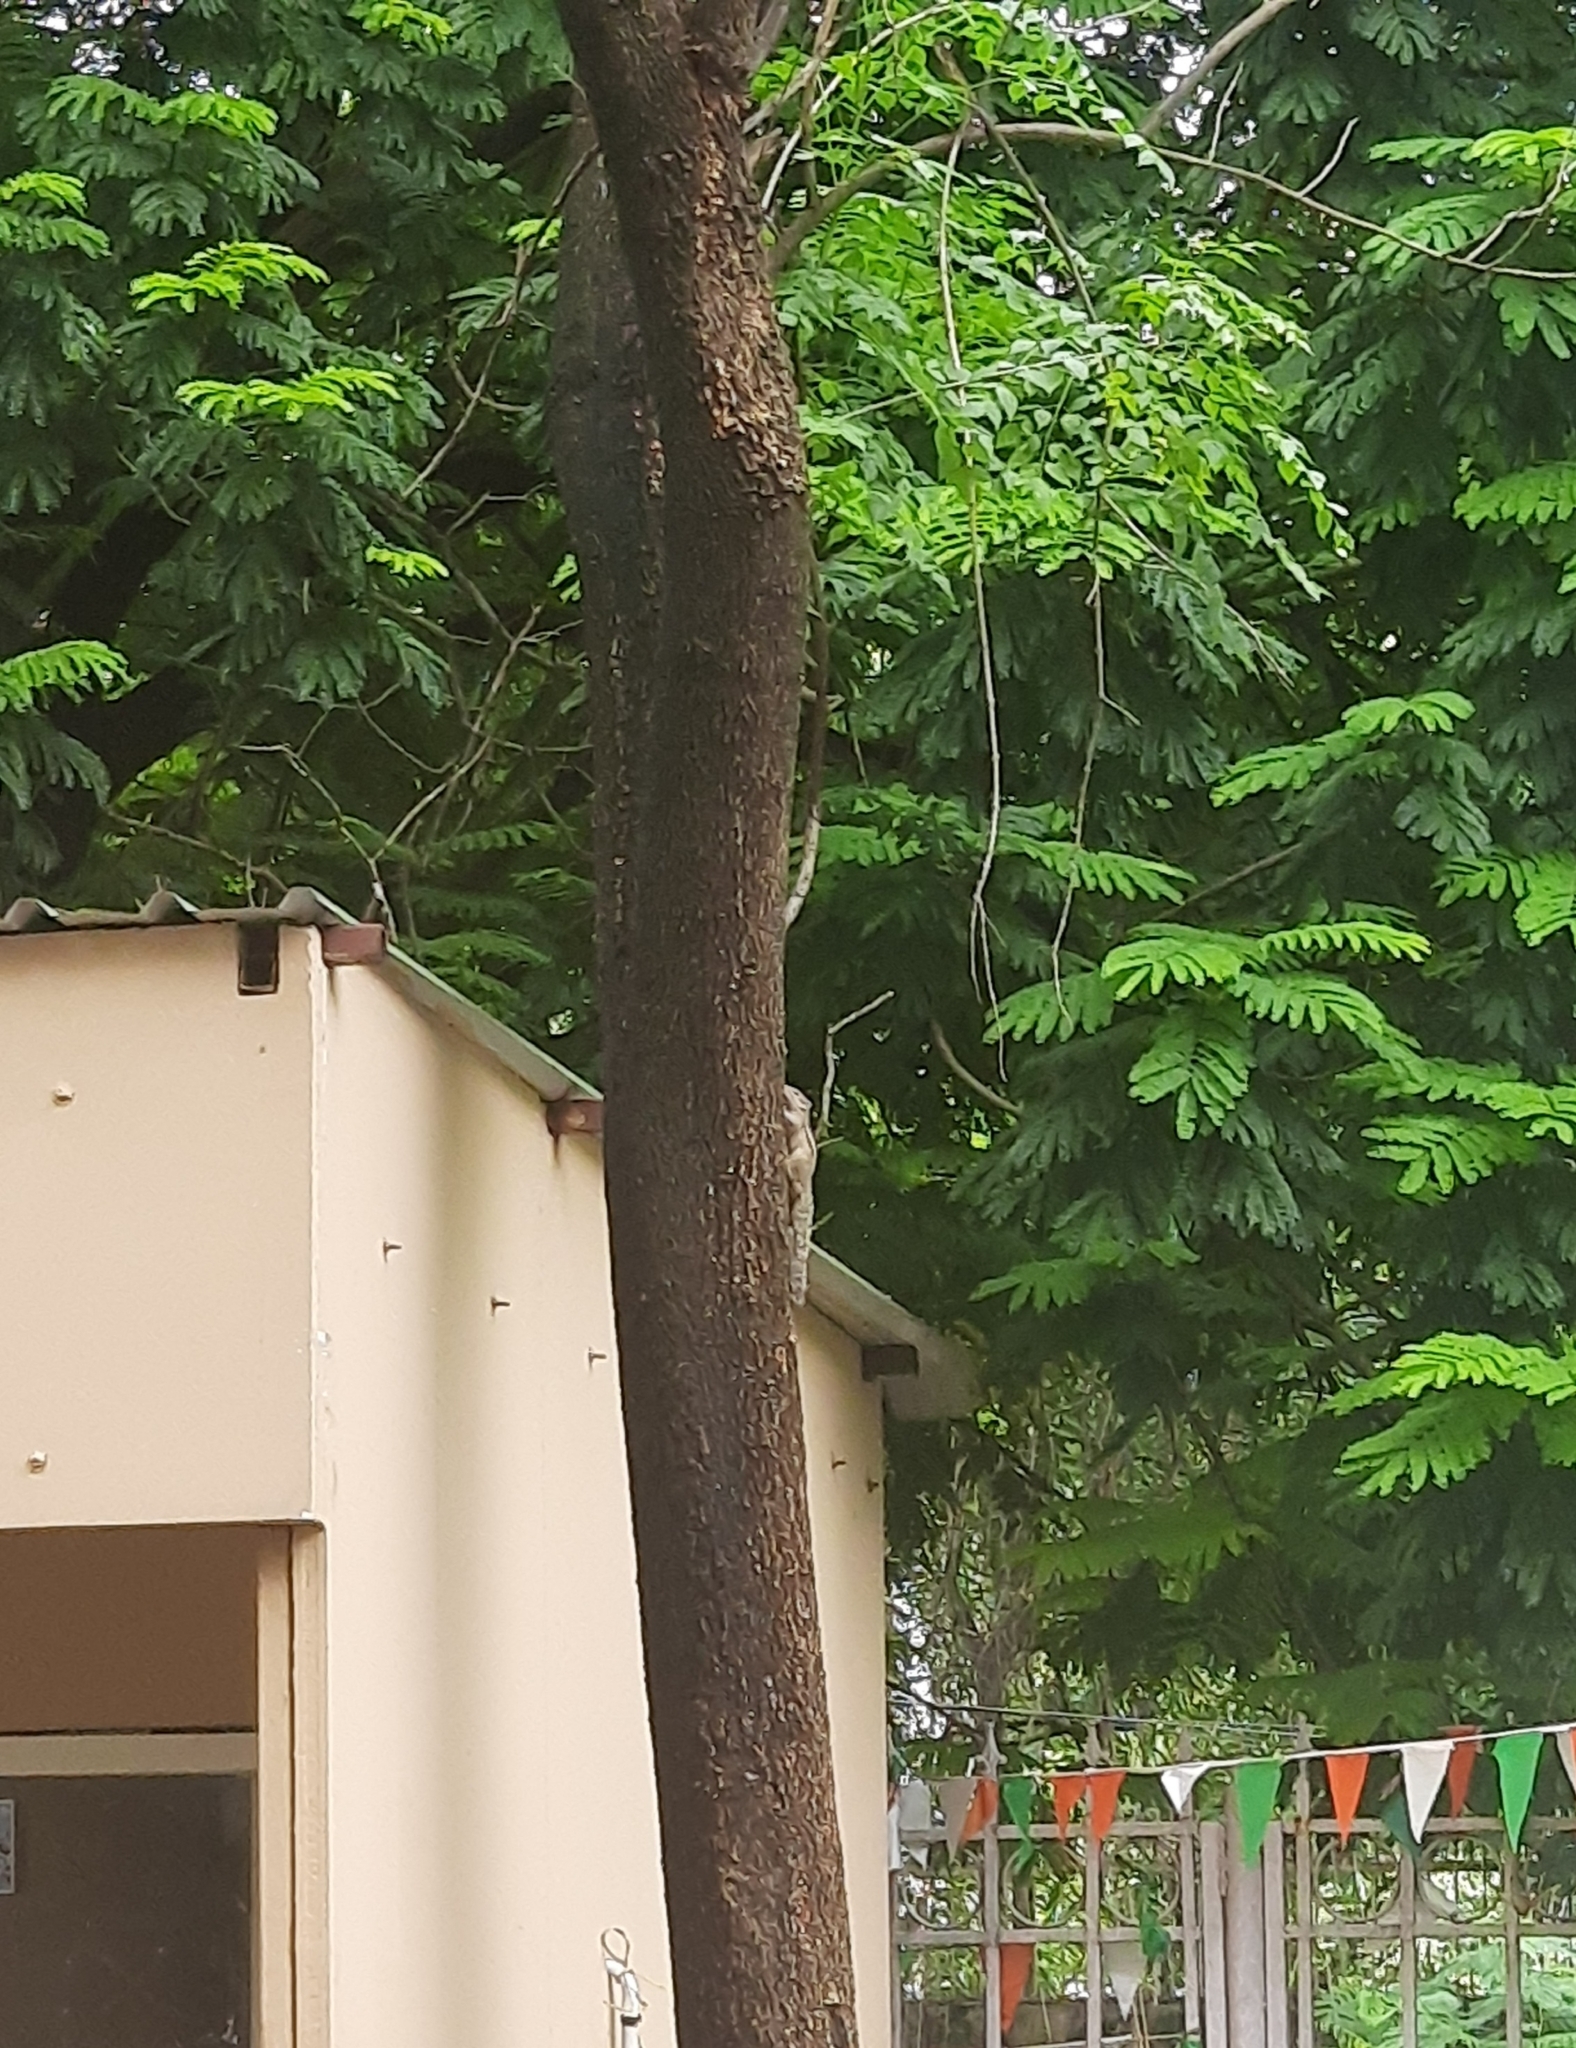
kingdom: Animalia
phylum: Chordata
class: Mammalia
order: Rodentia
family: Sciuridae
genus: Funambulus
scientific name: Funambulus palmarum
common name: Indian palm squirrel
